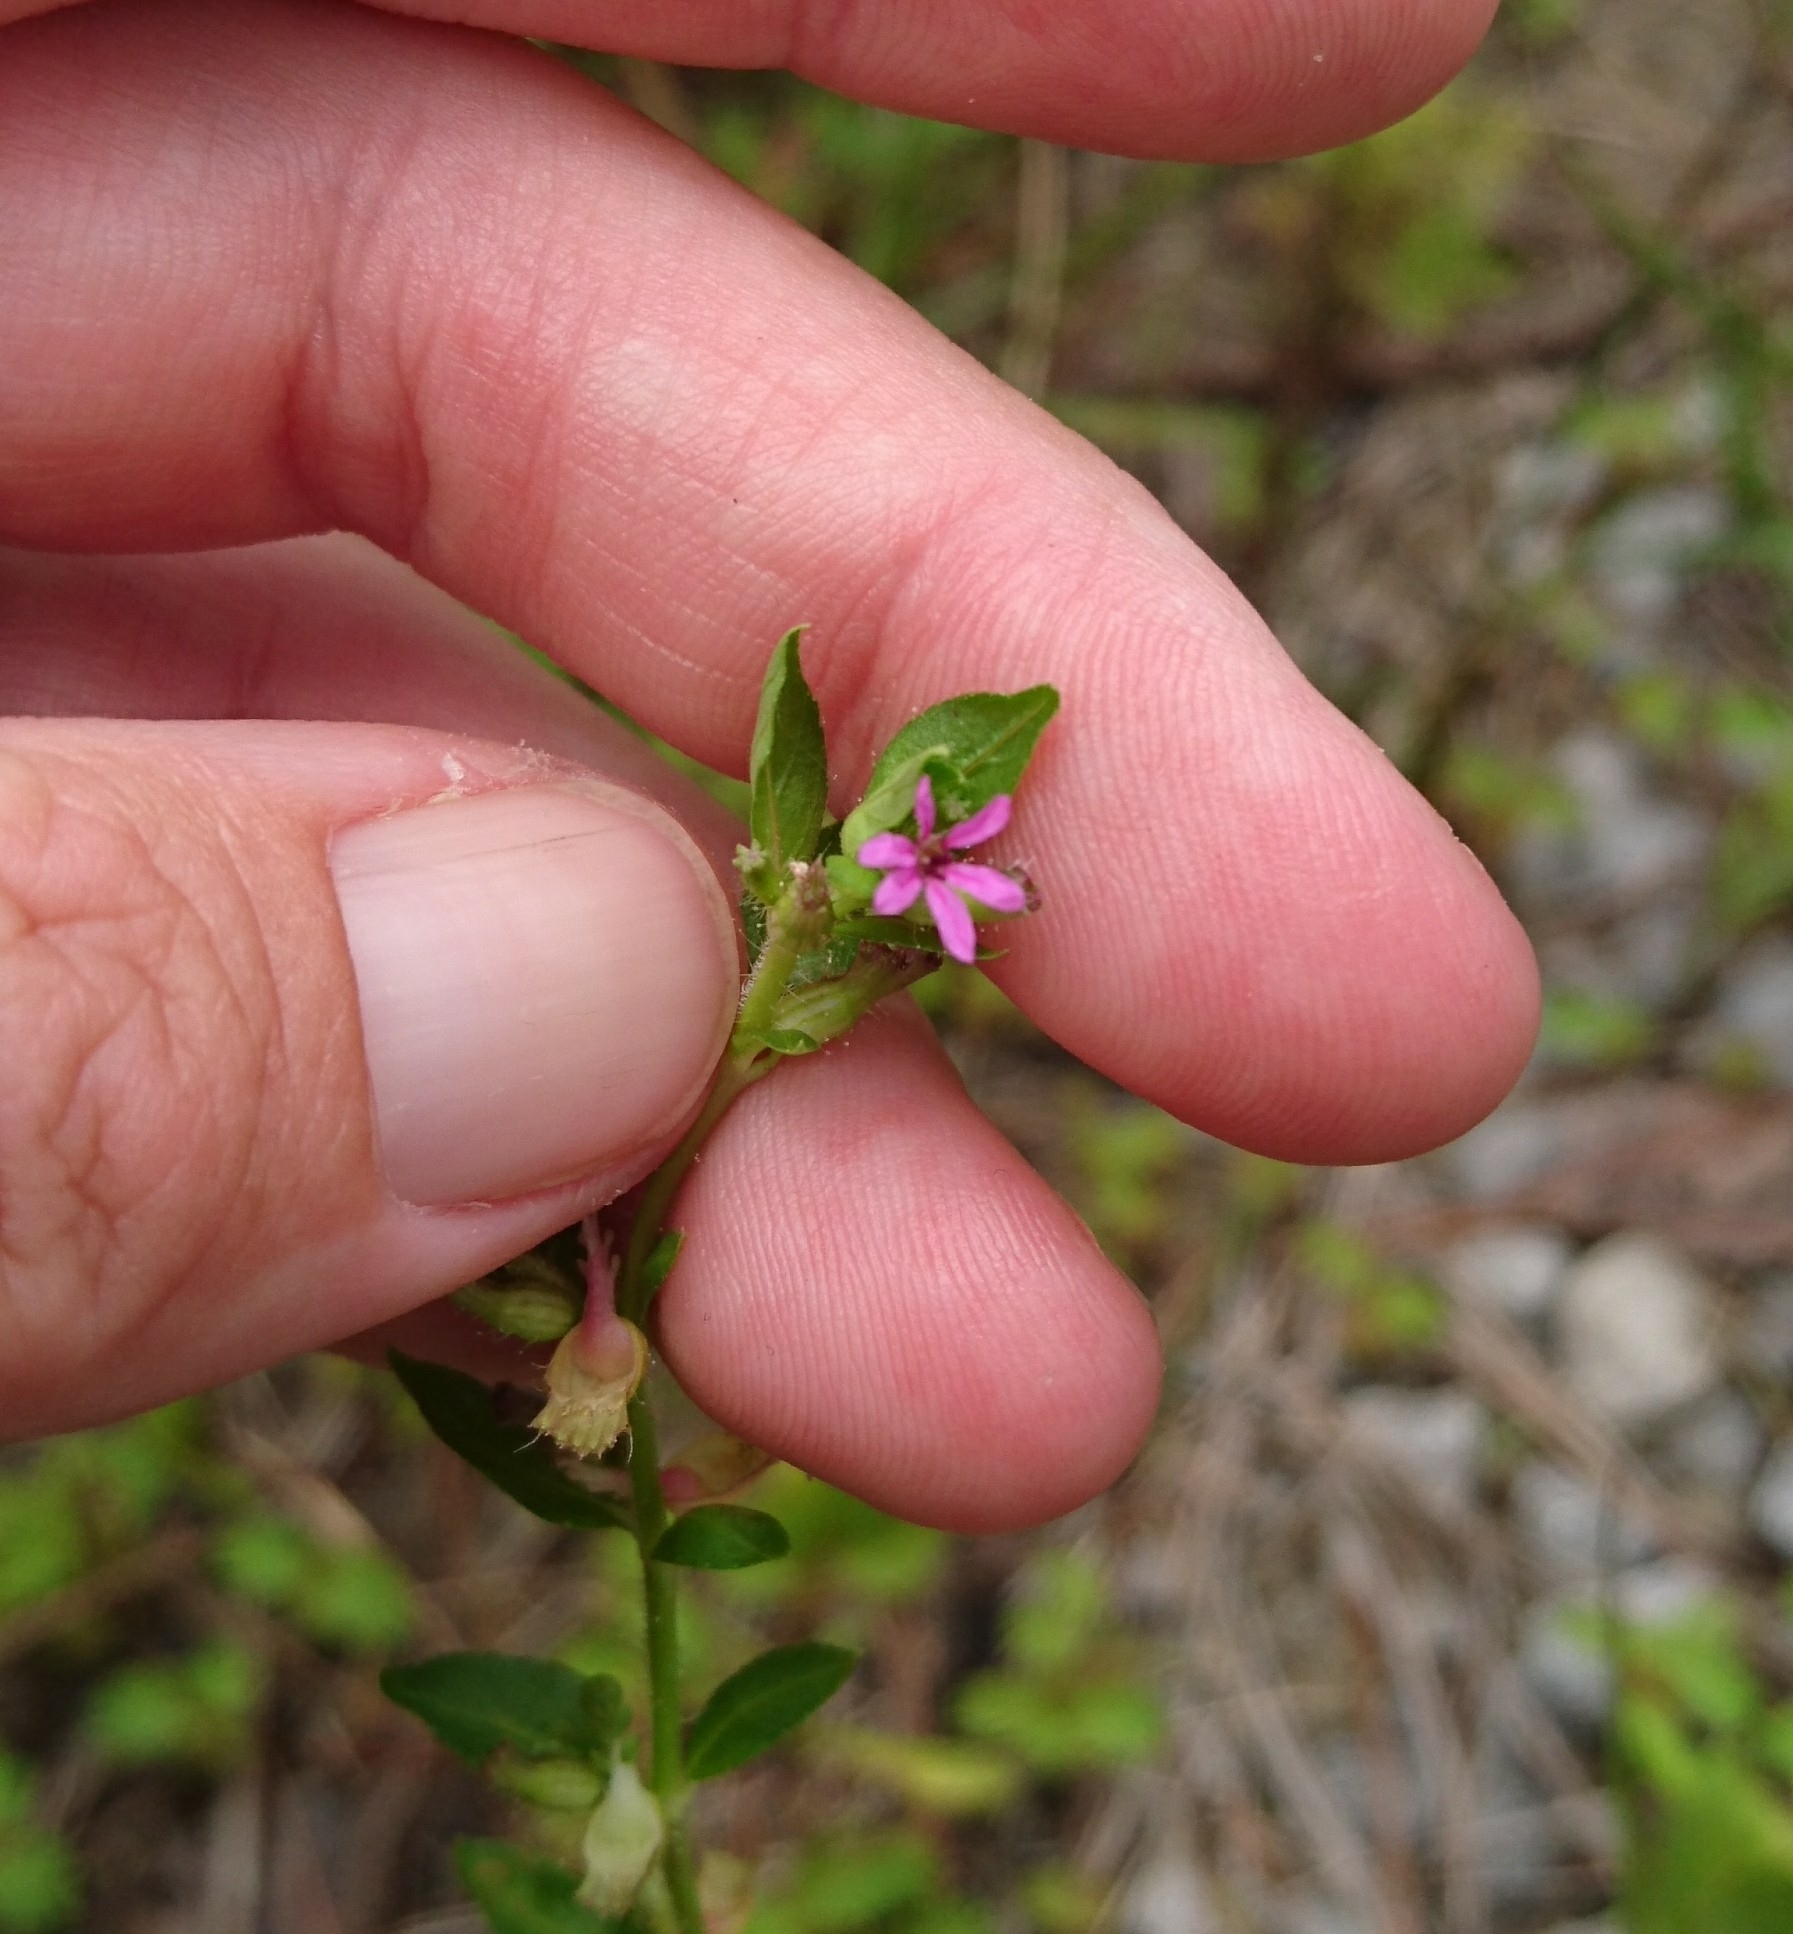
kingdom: Plantae
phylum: Tracheophyta
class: Magnoliopsida
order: Myrtales
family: Lythraceae
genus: Cuphea
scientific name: Cuphea carthagenensis
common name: Colombian waxweed
